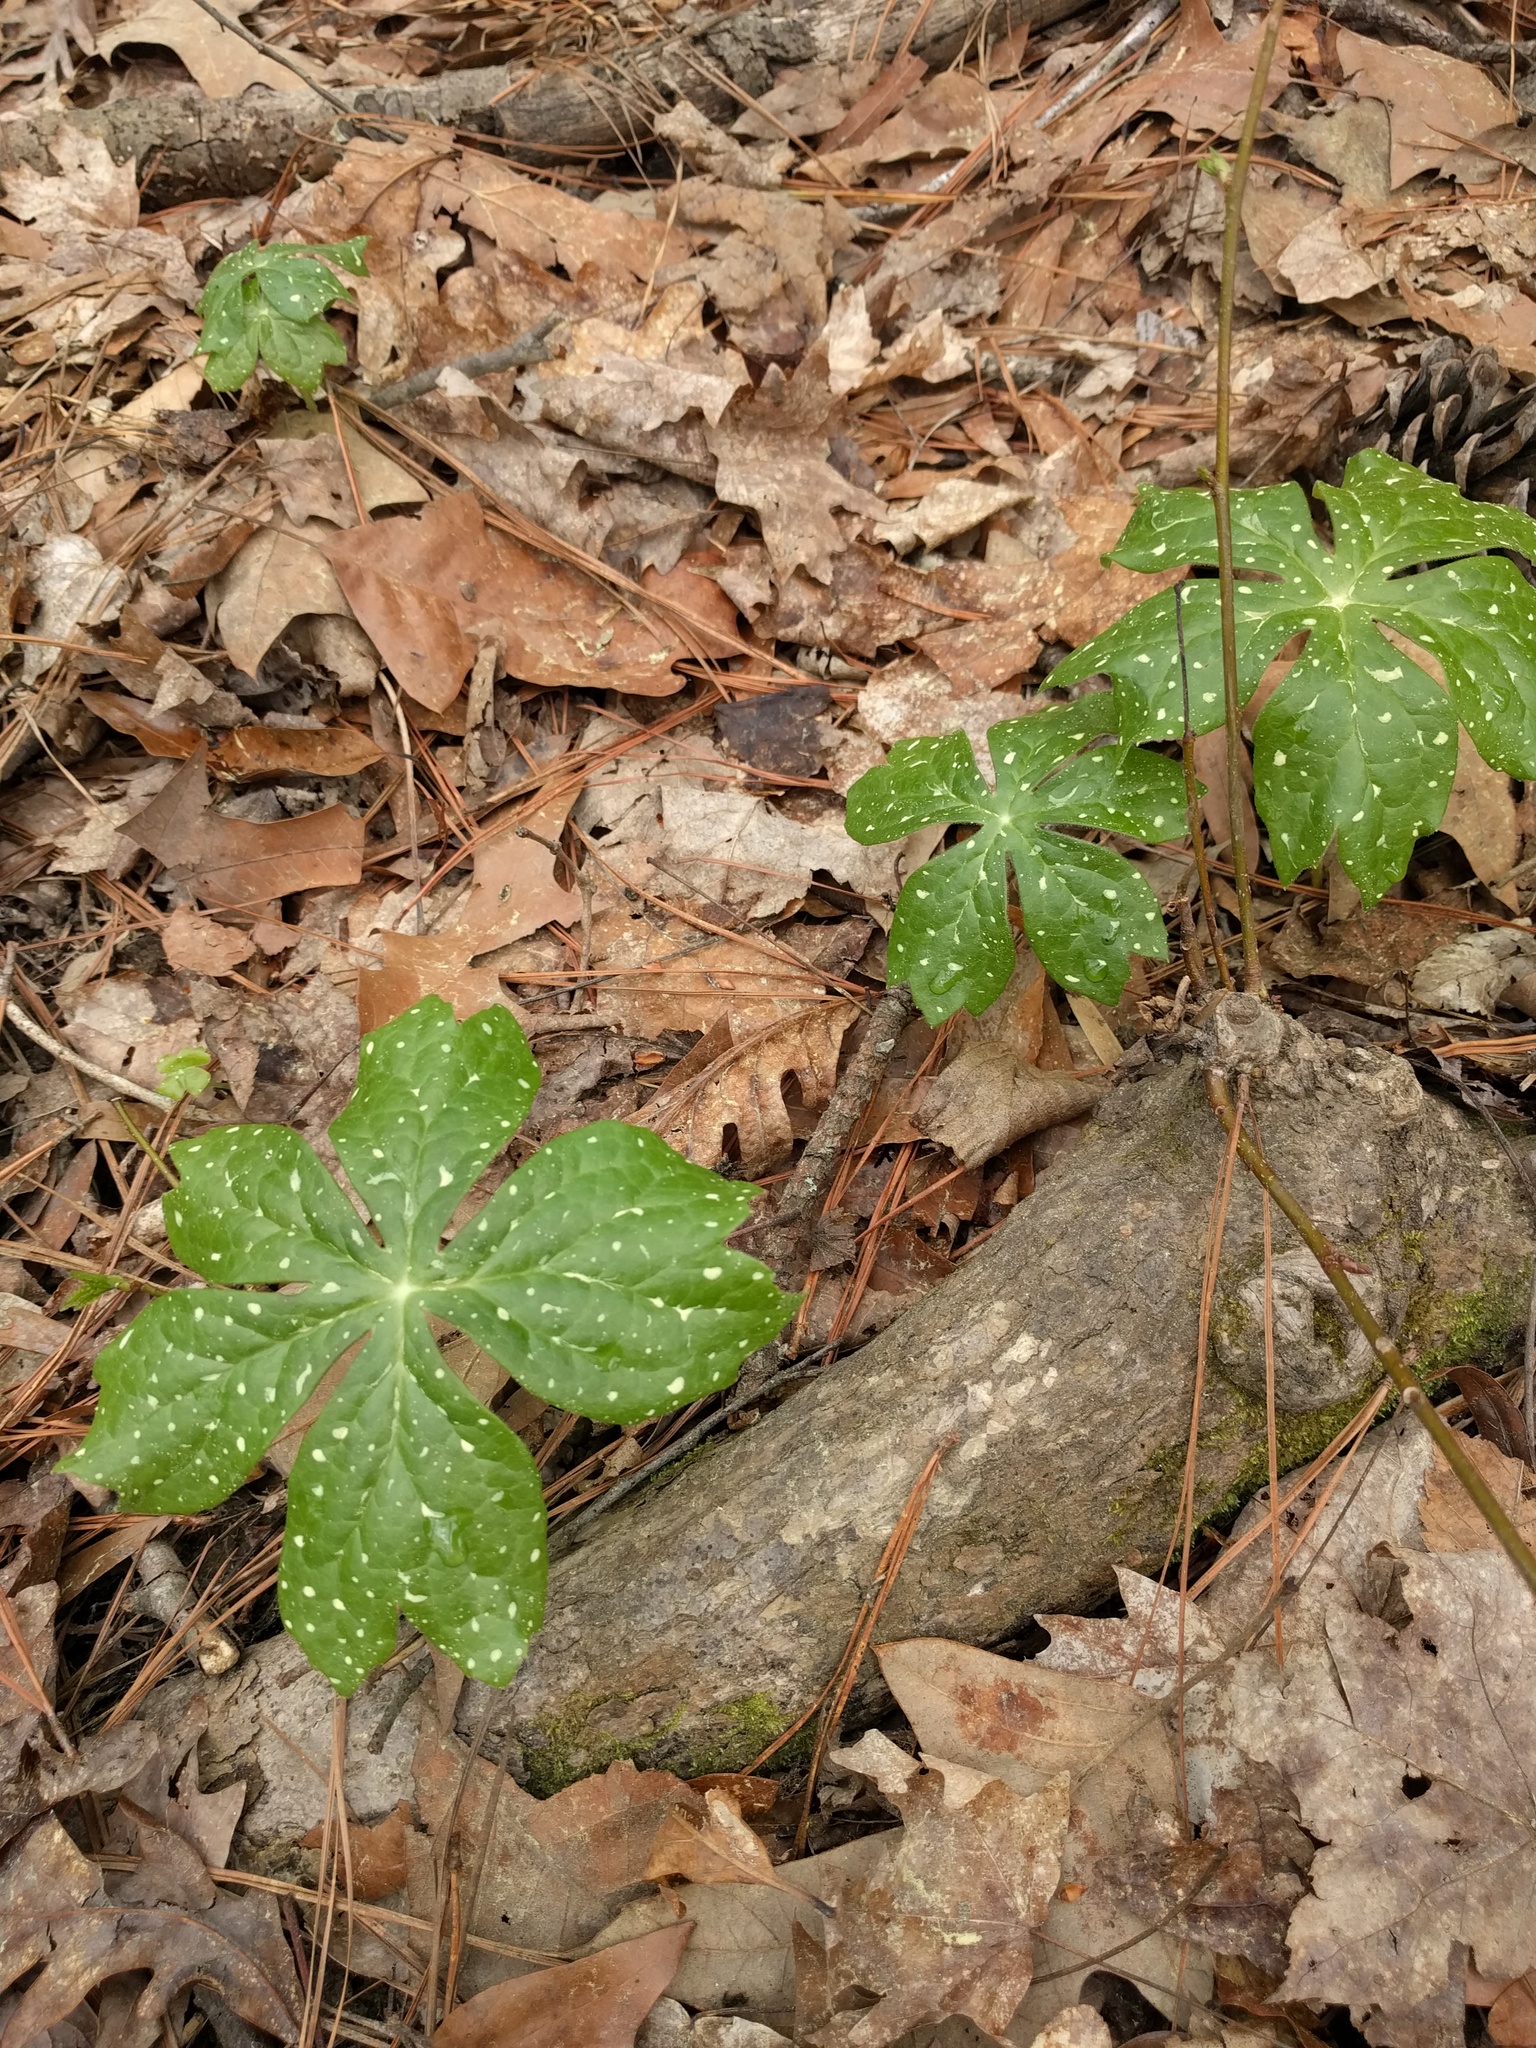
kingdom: Plantae
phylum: Tracheophyta
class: Magnoliopsida
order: Ranunculales
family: Berberidaceae
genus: Podophyllum
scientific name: Podophyllum peltatum
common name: Wild mandrake
